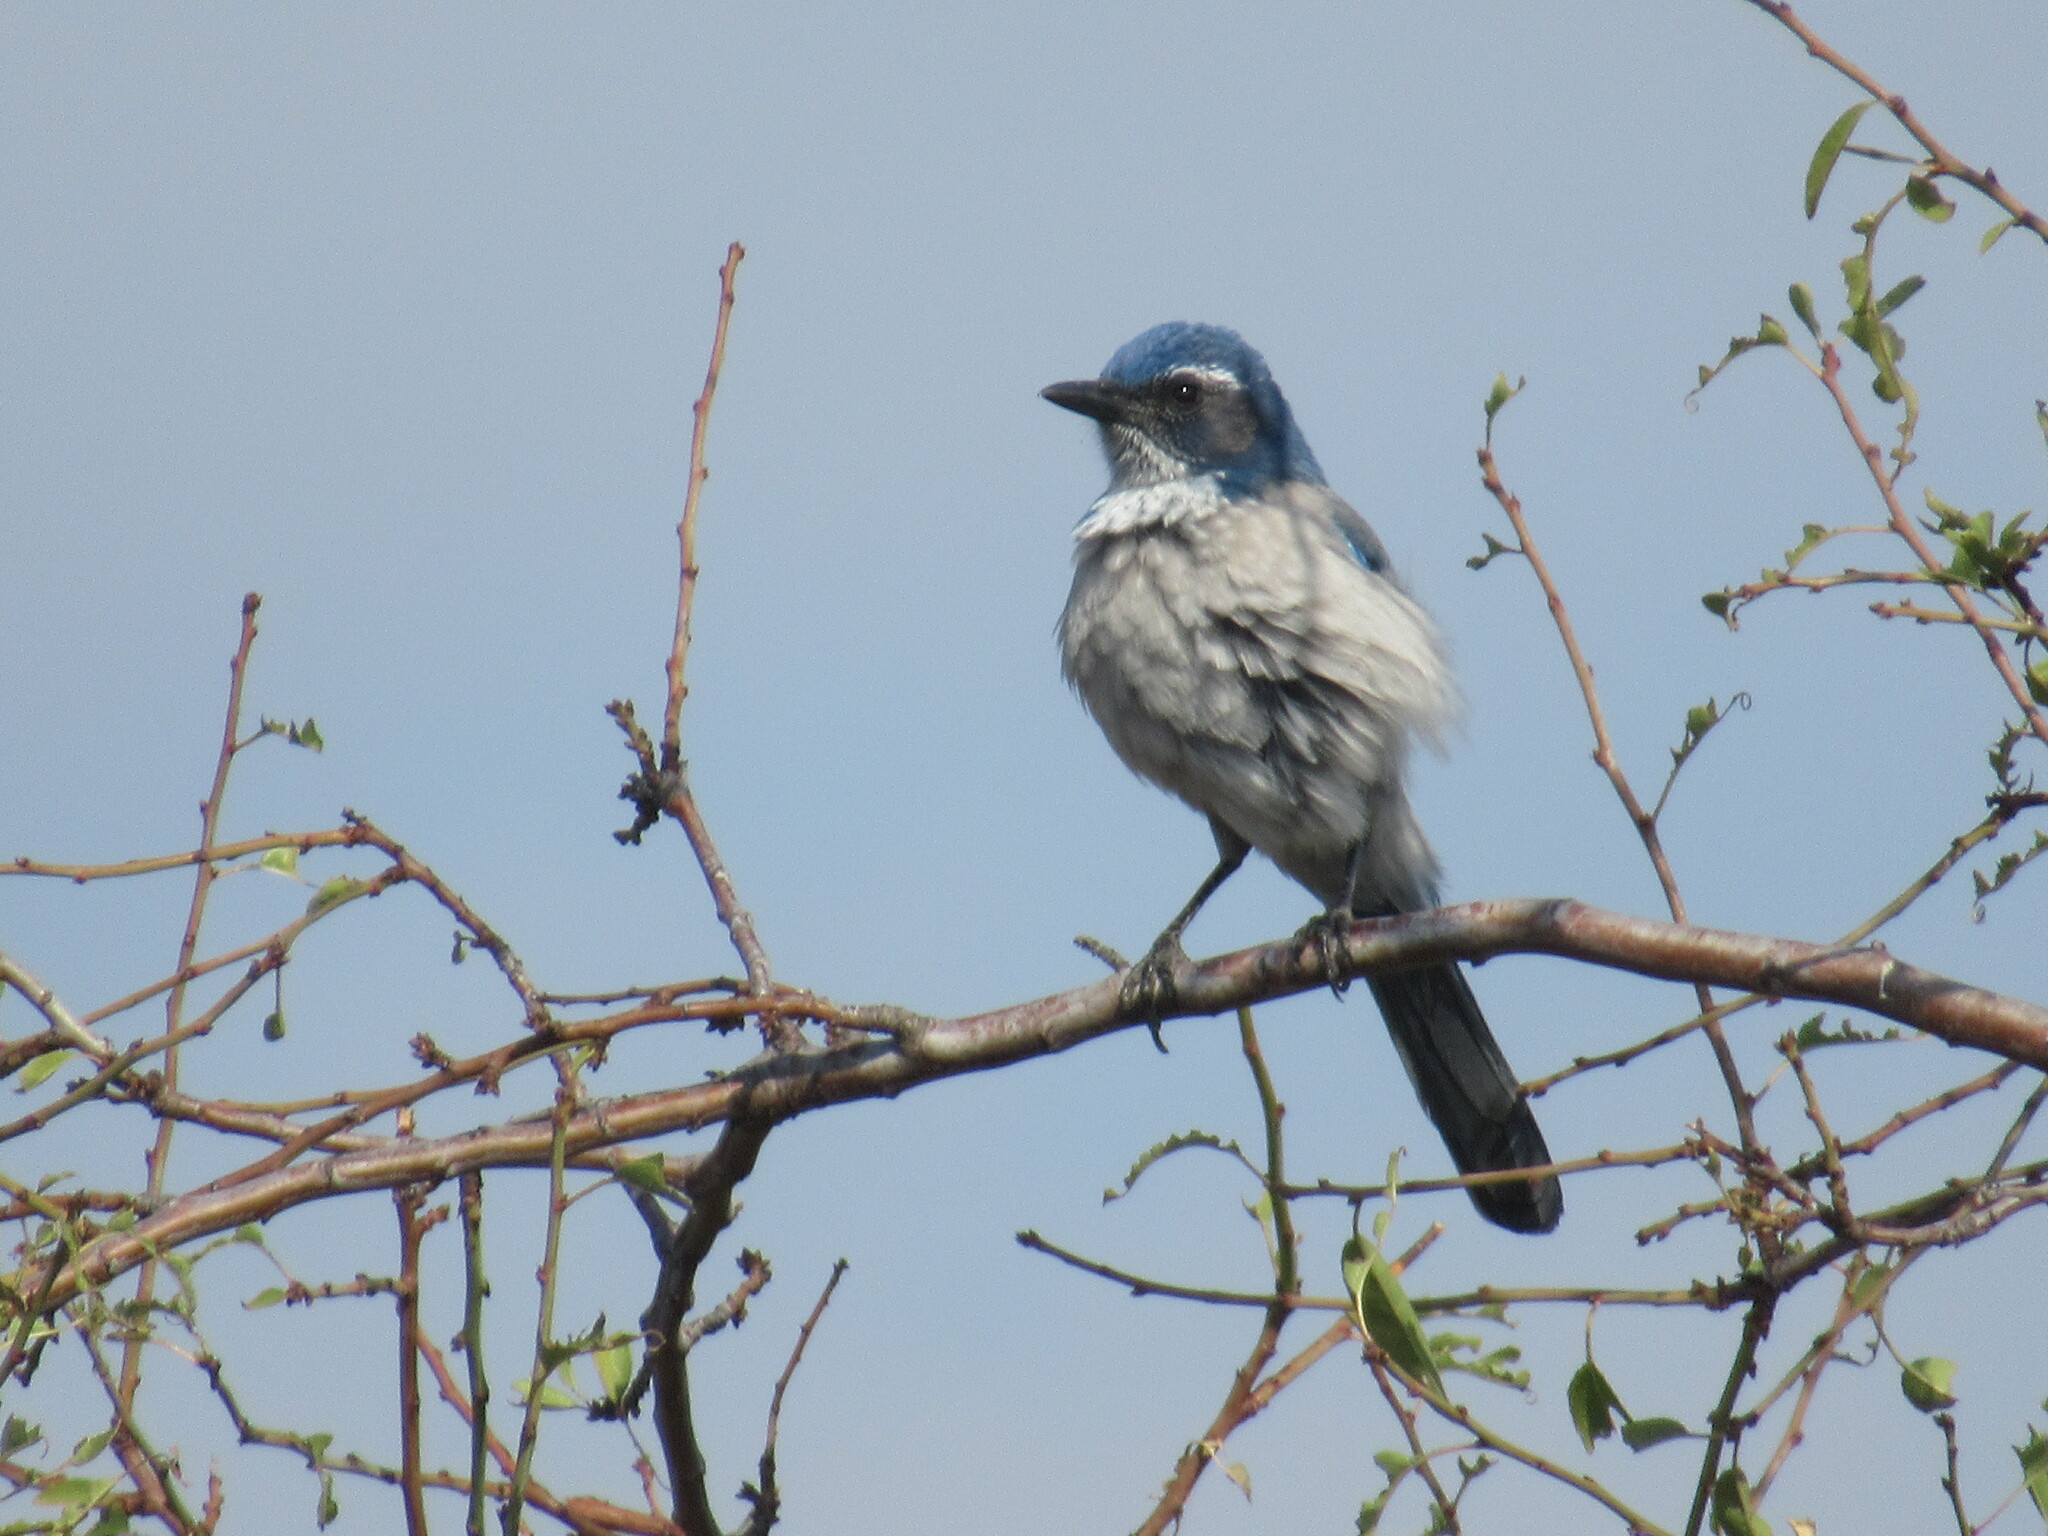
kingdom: Animalia
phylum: Chordata
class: Aves
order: Passeriformes
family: Corvidae
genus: Aphelocoma
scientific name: Aphelocoma californica
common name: California scrub-jay
